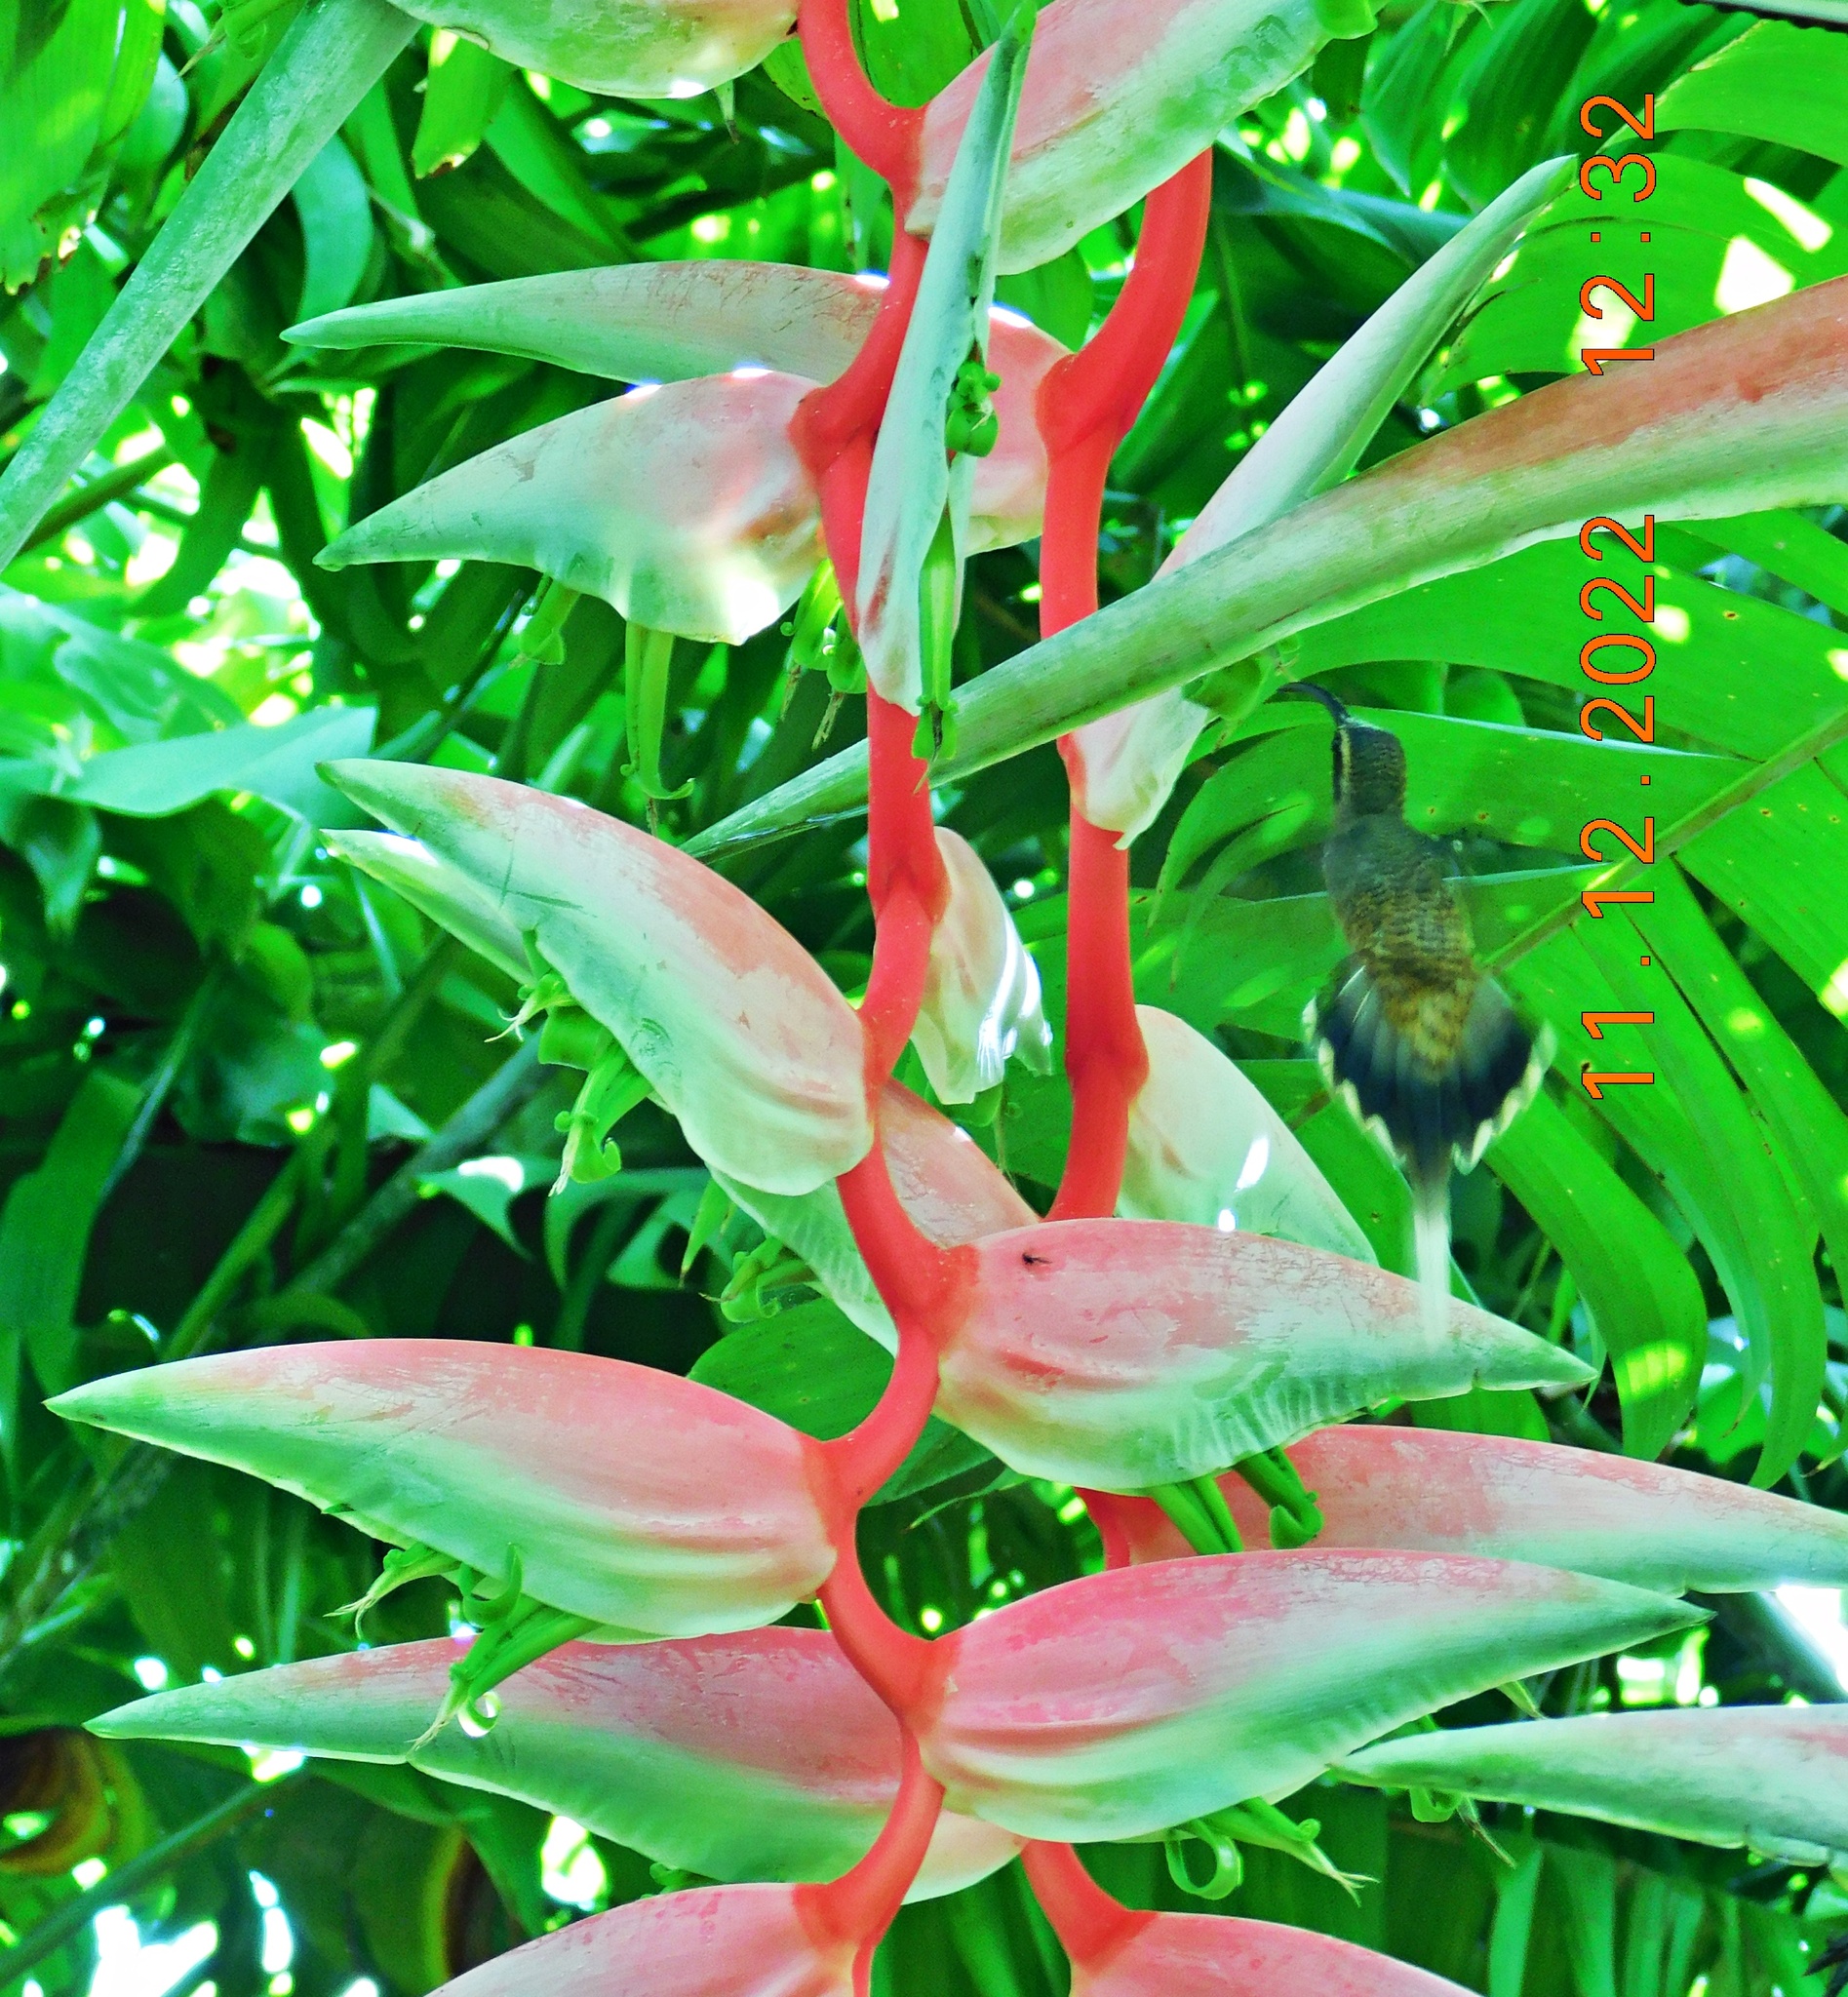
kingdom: Animalia
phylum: Chordata
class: Aves
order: Apodiformes
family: Trochilidae
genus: Phaethornis
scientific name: Phaethornis longirostris
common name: Long-billed hermit
